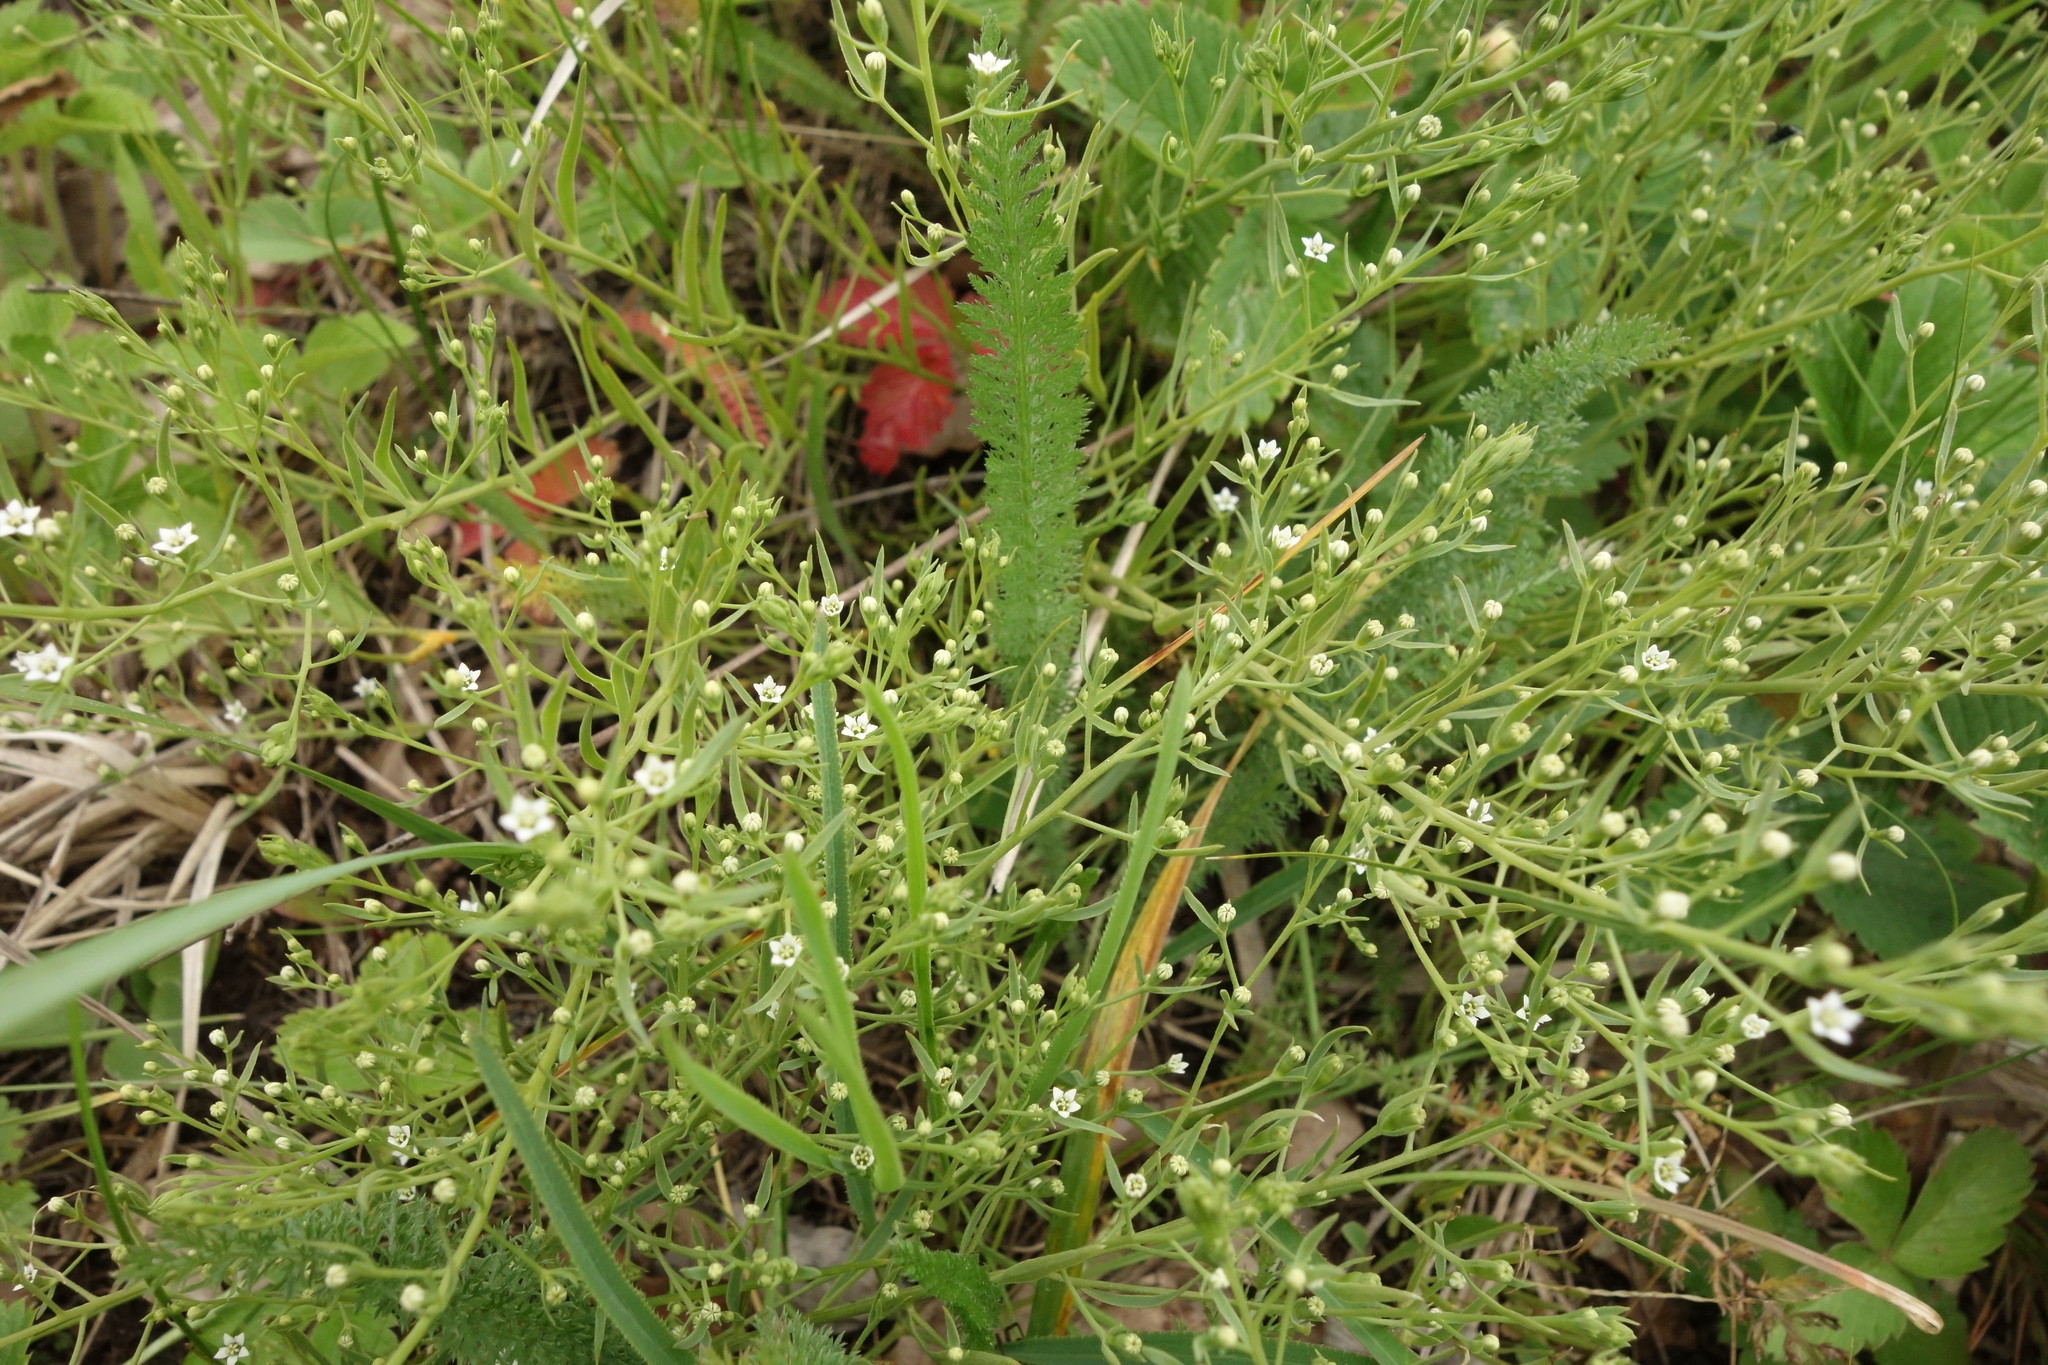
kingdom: Plantae
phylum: Tracheophyta
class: Magnoliopsida
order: Santalales
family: Thesiaceae
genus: Thesium
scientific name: Thesium ramosum
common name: Field thesium
